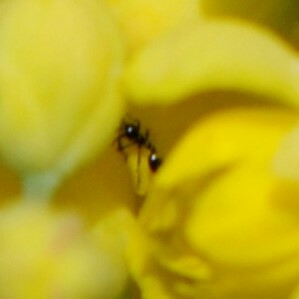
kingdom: Animalia
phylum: Arthropoda
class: Insecta
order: Hymenoptera
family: Formicidae
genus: Monomorium
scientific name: Monomorium
